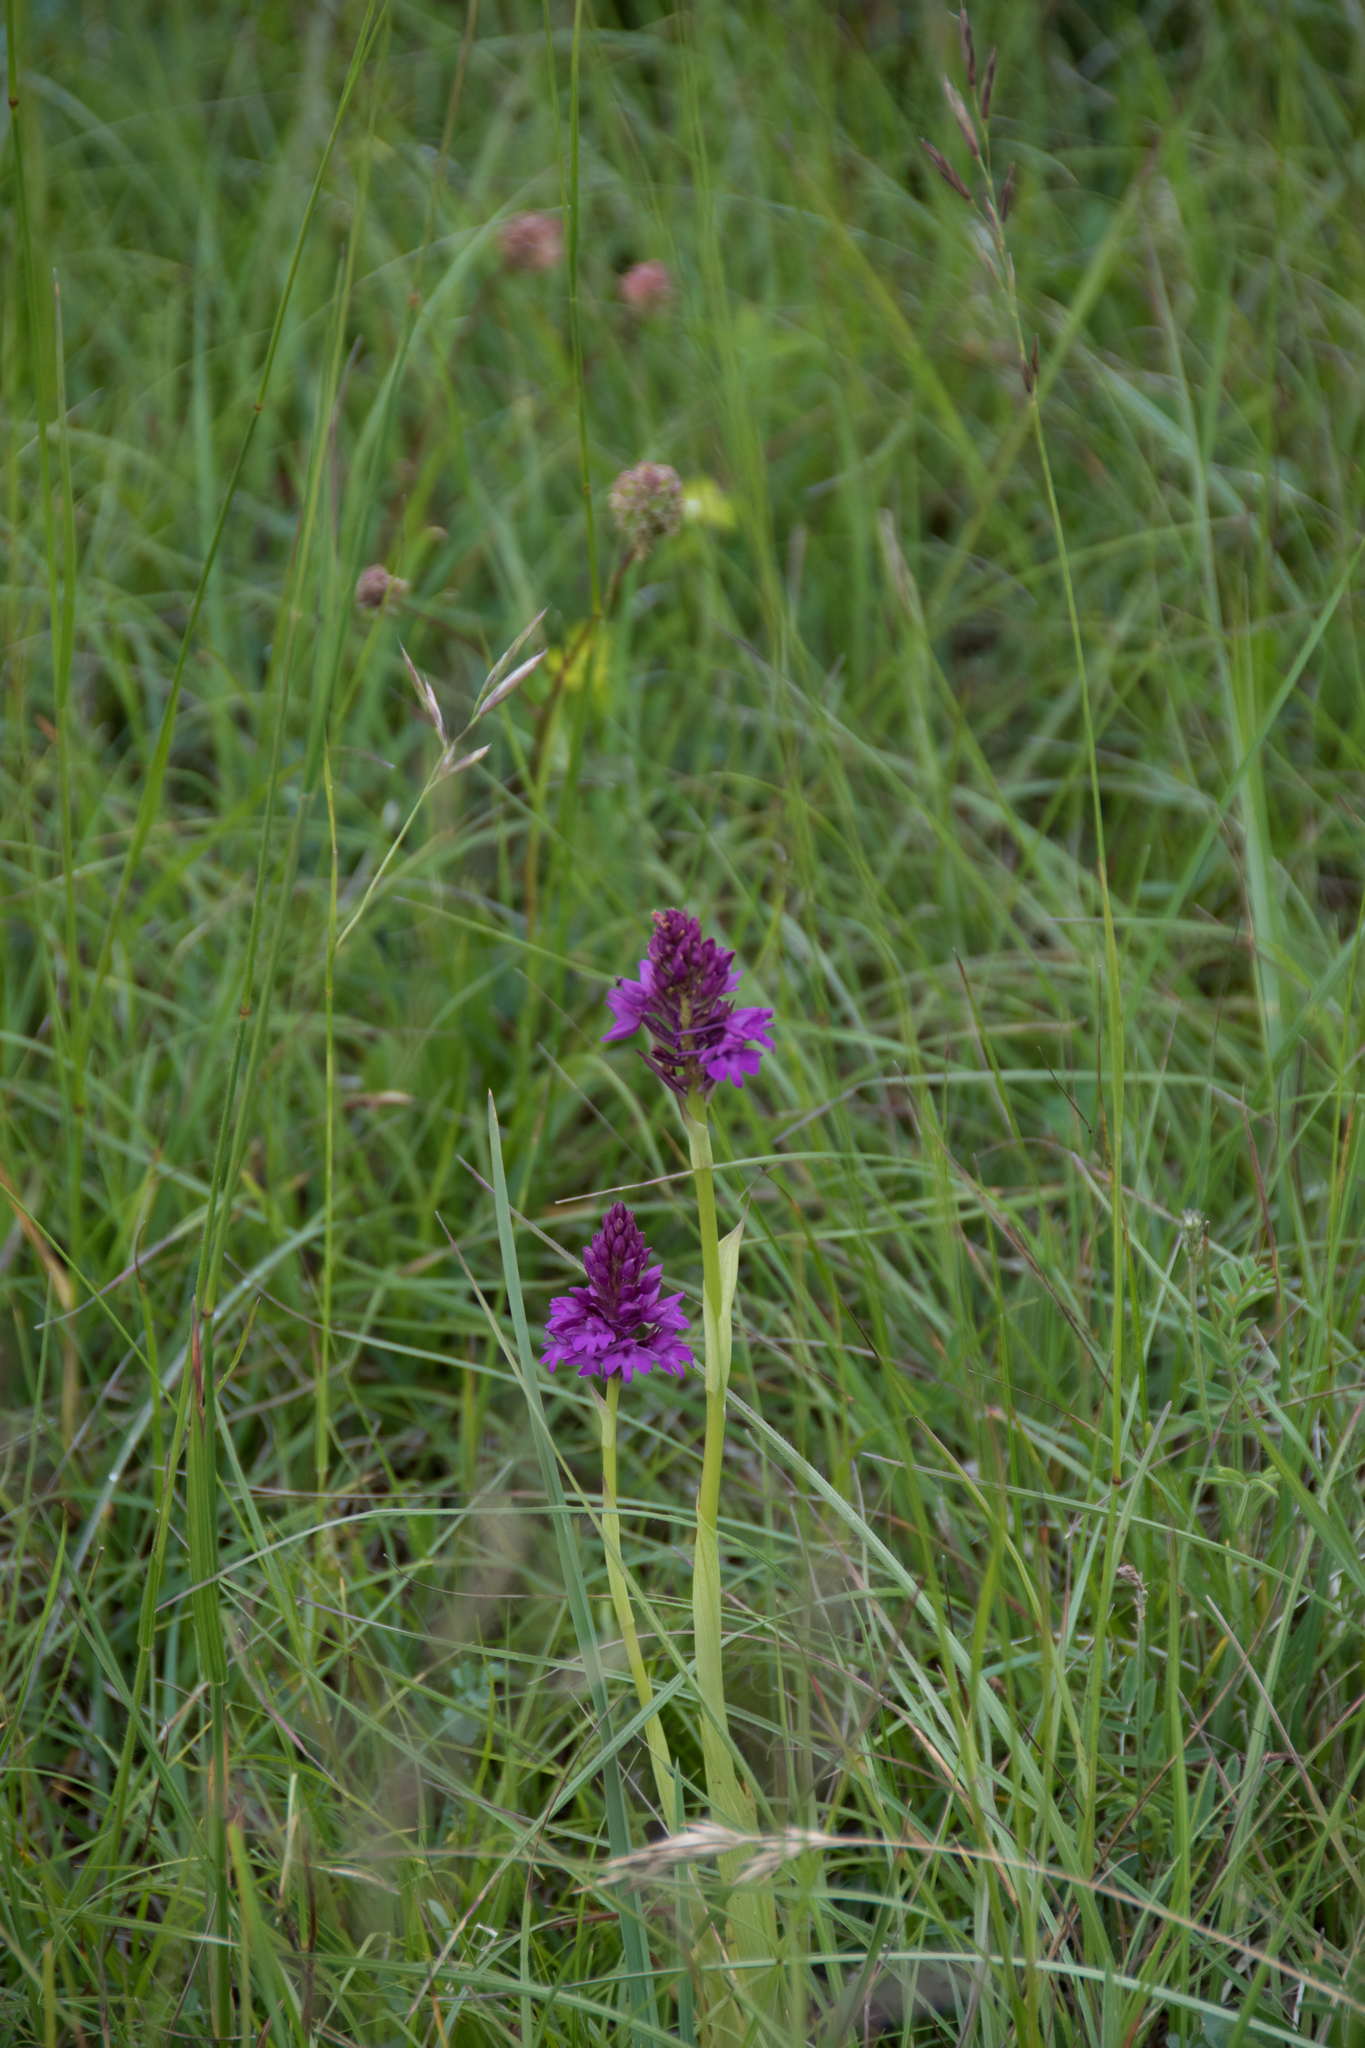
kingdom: Plantae
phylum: Tracheophyta
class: Liliopsida
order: Asparagales
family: Orchidaceae
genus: Anacamptis
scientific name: Anacamptis pyramidalis
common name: Pyramidal orchid
